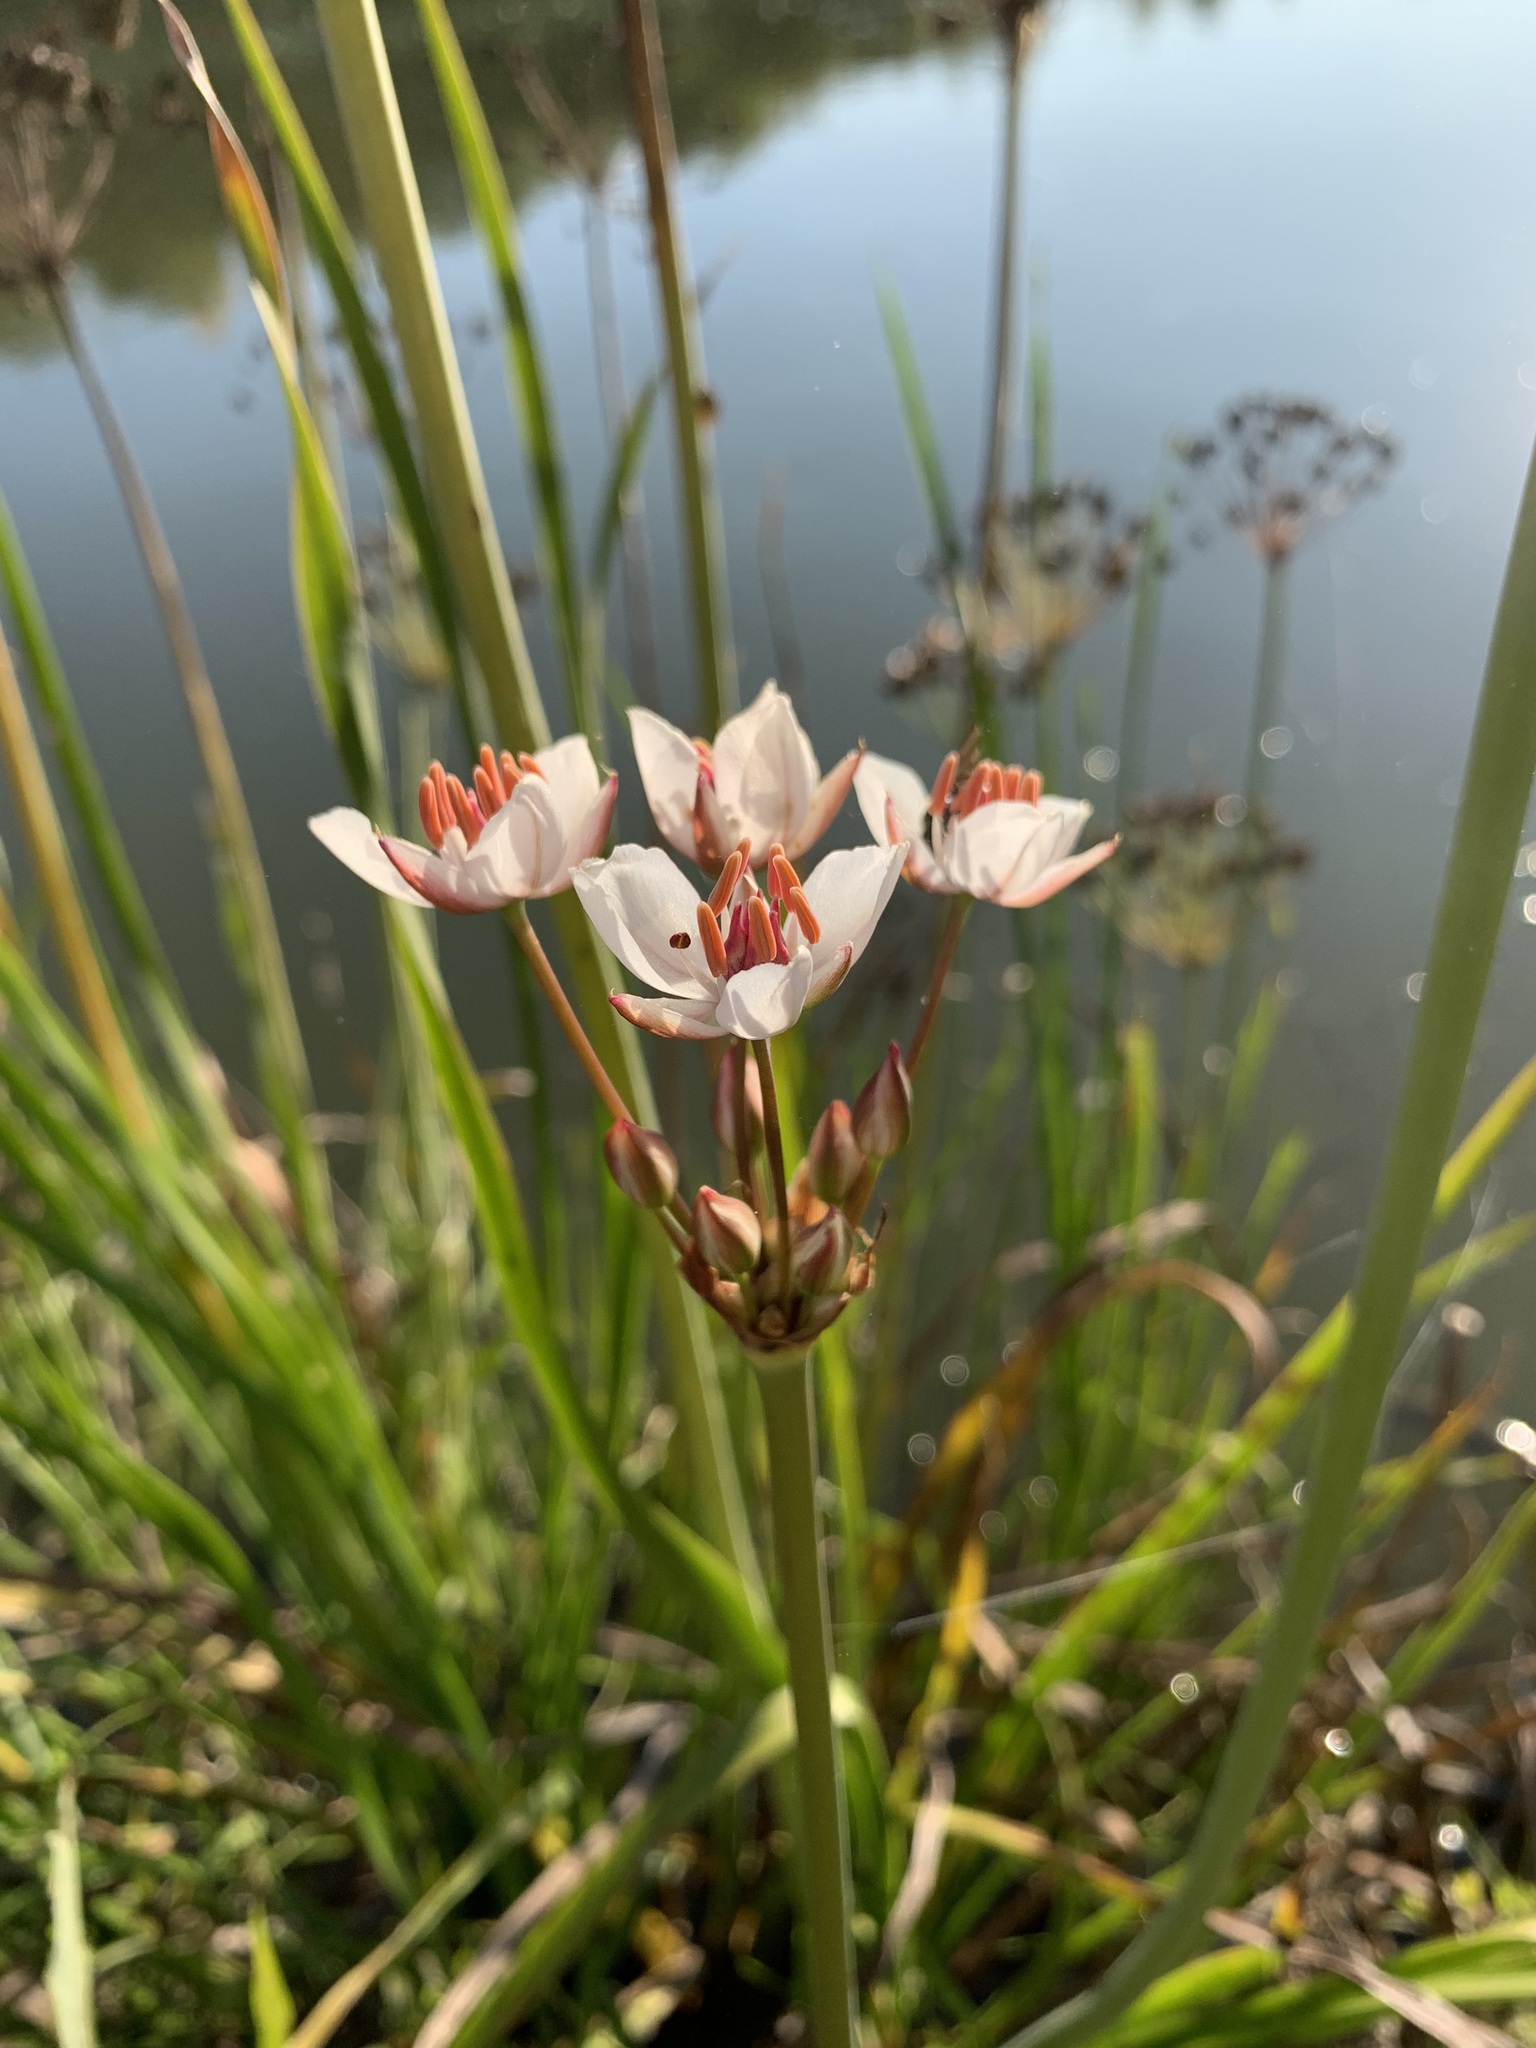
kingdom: Plantae
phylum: Tracheophyta
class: Liliopsida
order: Alismatales
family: Butomaceae
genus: Butomus
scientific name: Butomus umbellatus
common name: Flowering-rush
